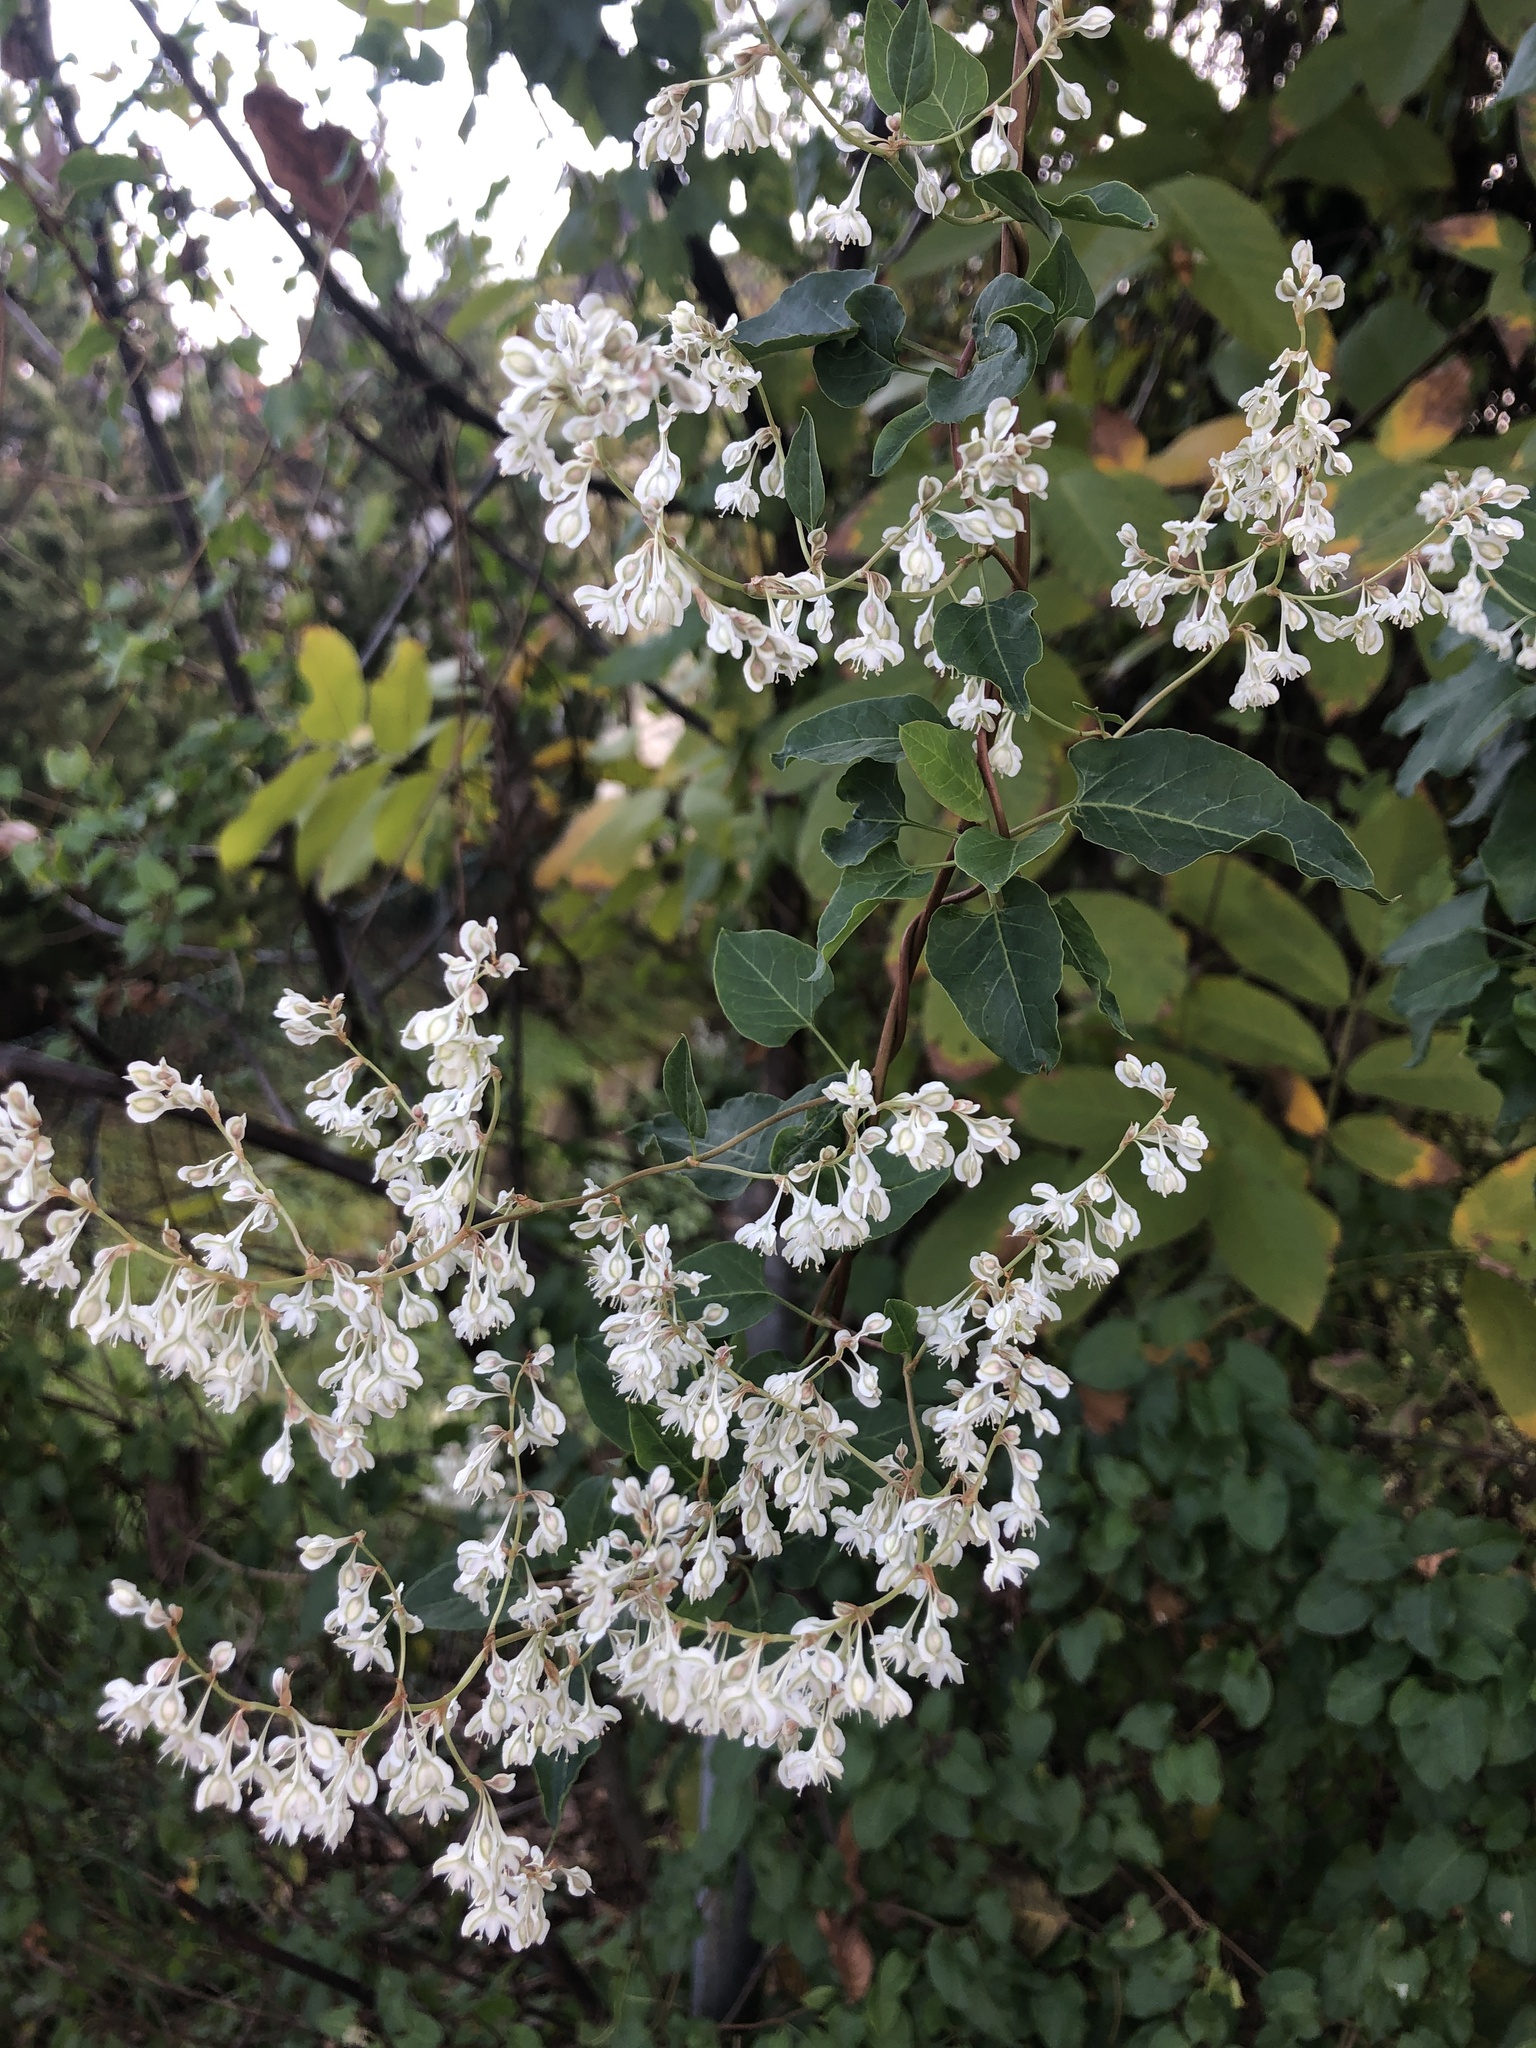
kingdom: Plantae
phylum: Tracheophyta
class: Magnoliopsida
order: Caryophyllales
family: Polygonaceae
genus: Fallopia
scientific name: Fallopia baldschuanica
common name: Russian-vine
